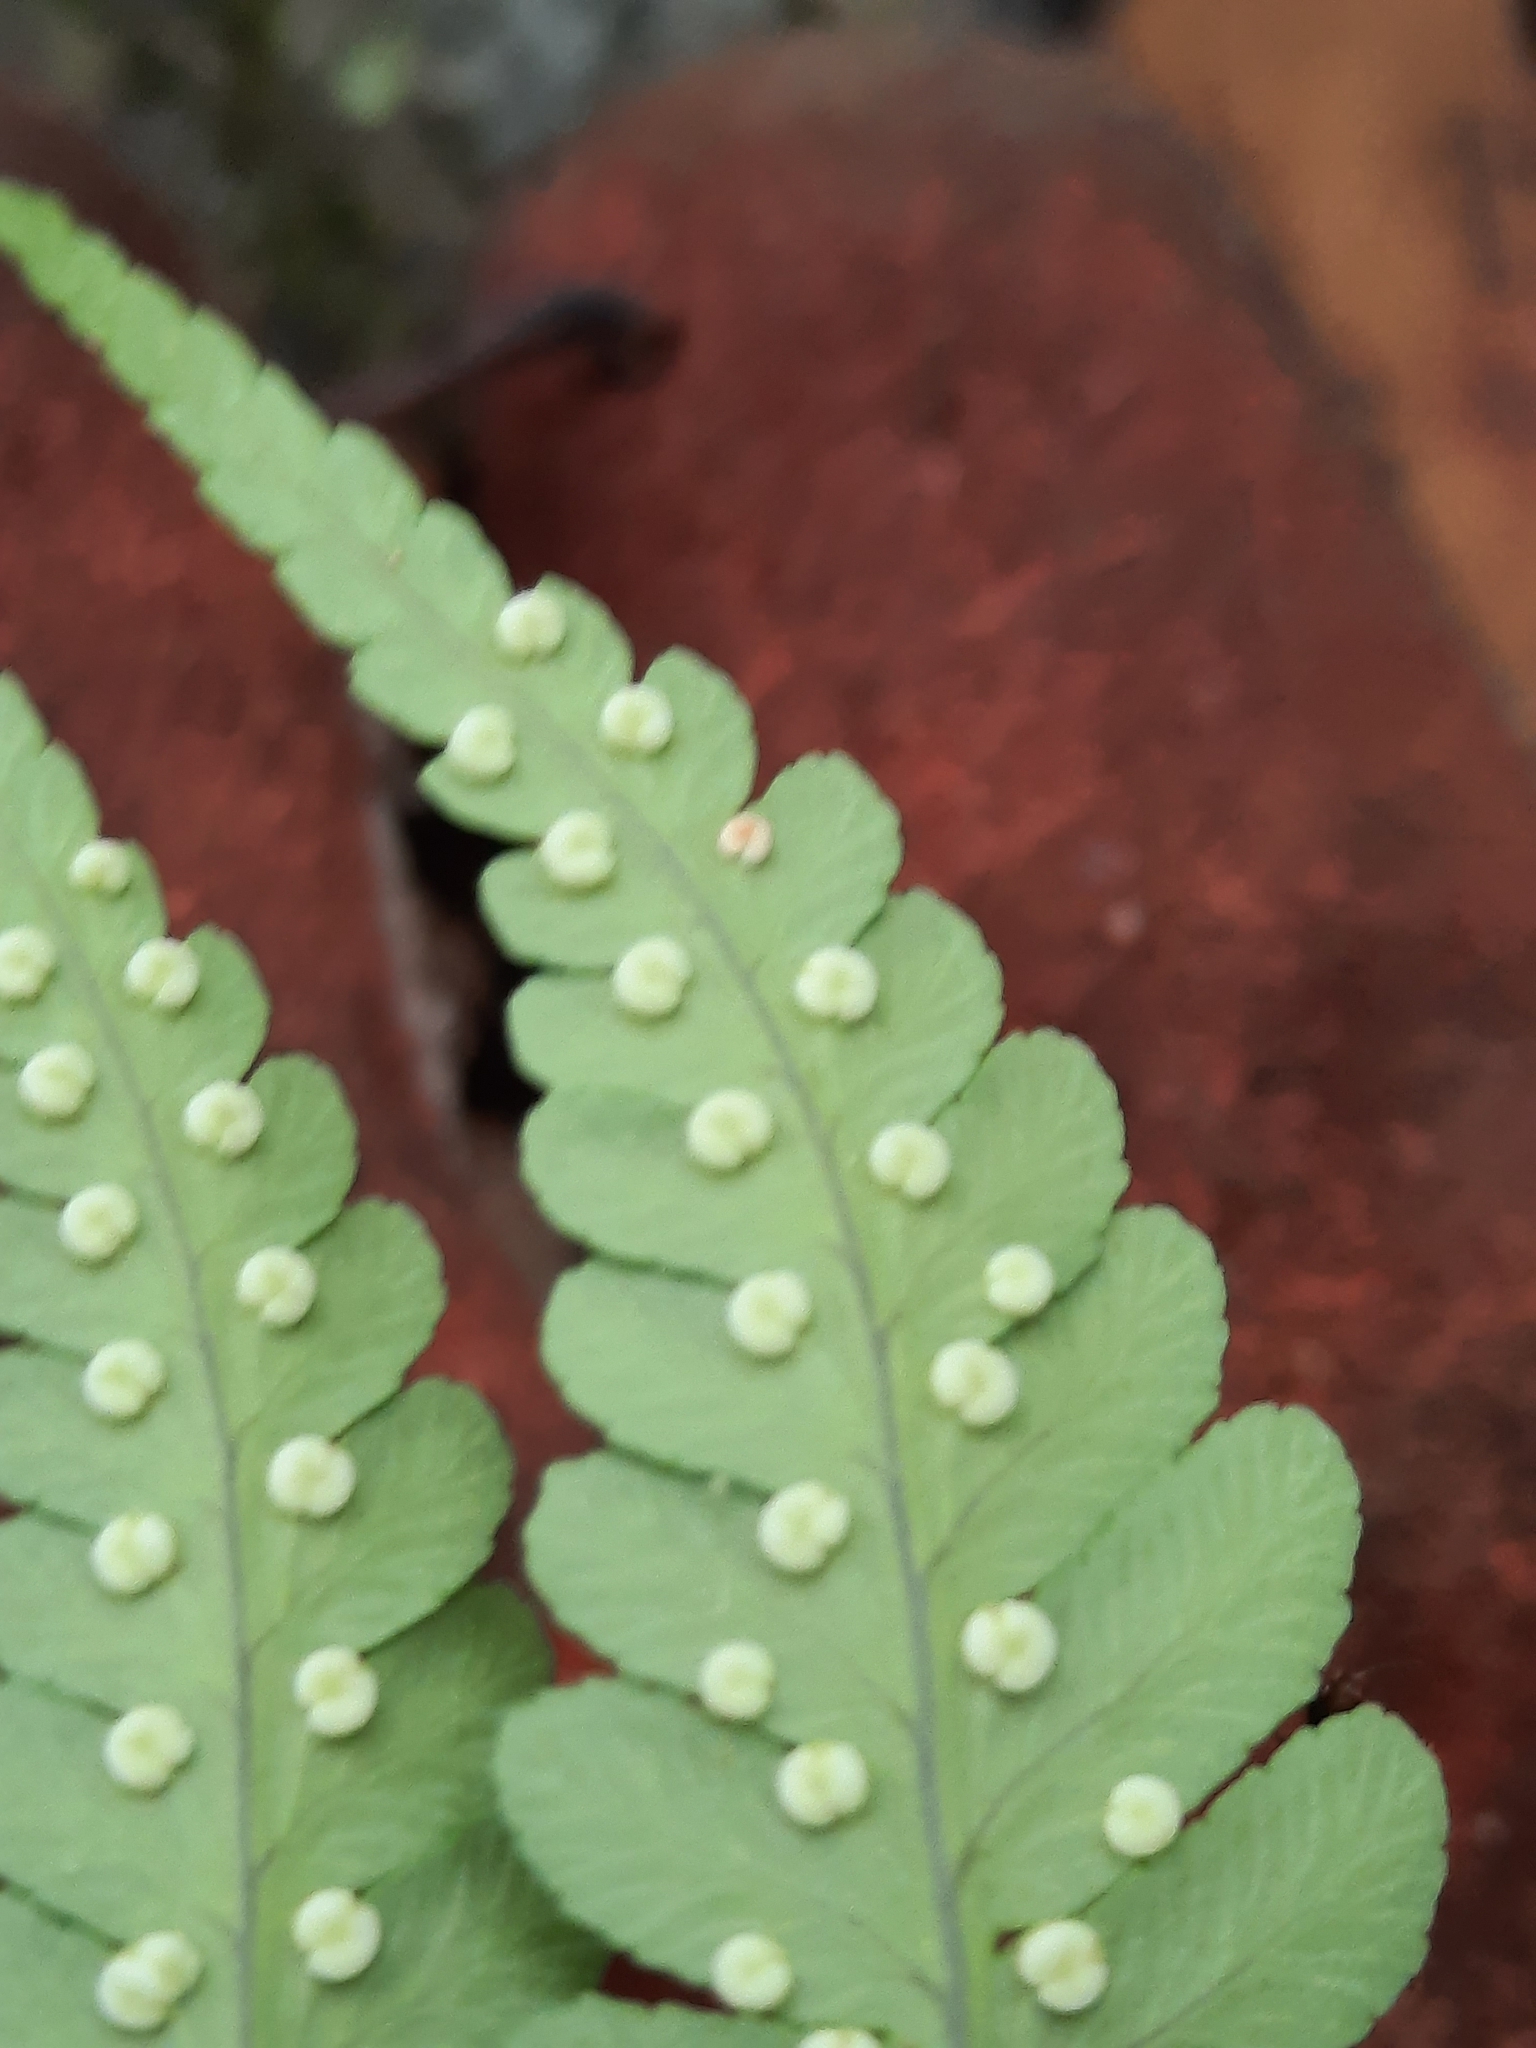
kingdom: Plantae
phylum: Tracheophyta
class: Polypodiopsida
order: Polypodiales
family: Dryopteridaceae
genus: Dryopteris
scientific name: Dryopteris marginalis
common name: Marginal wood fern
